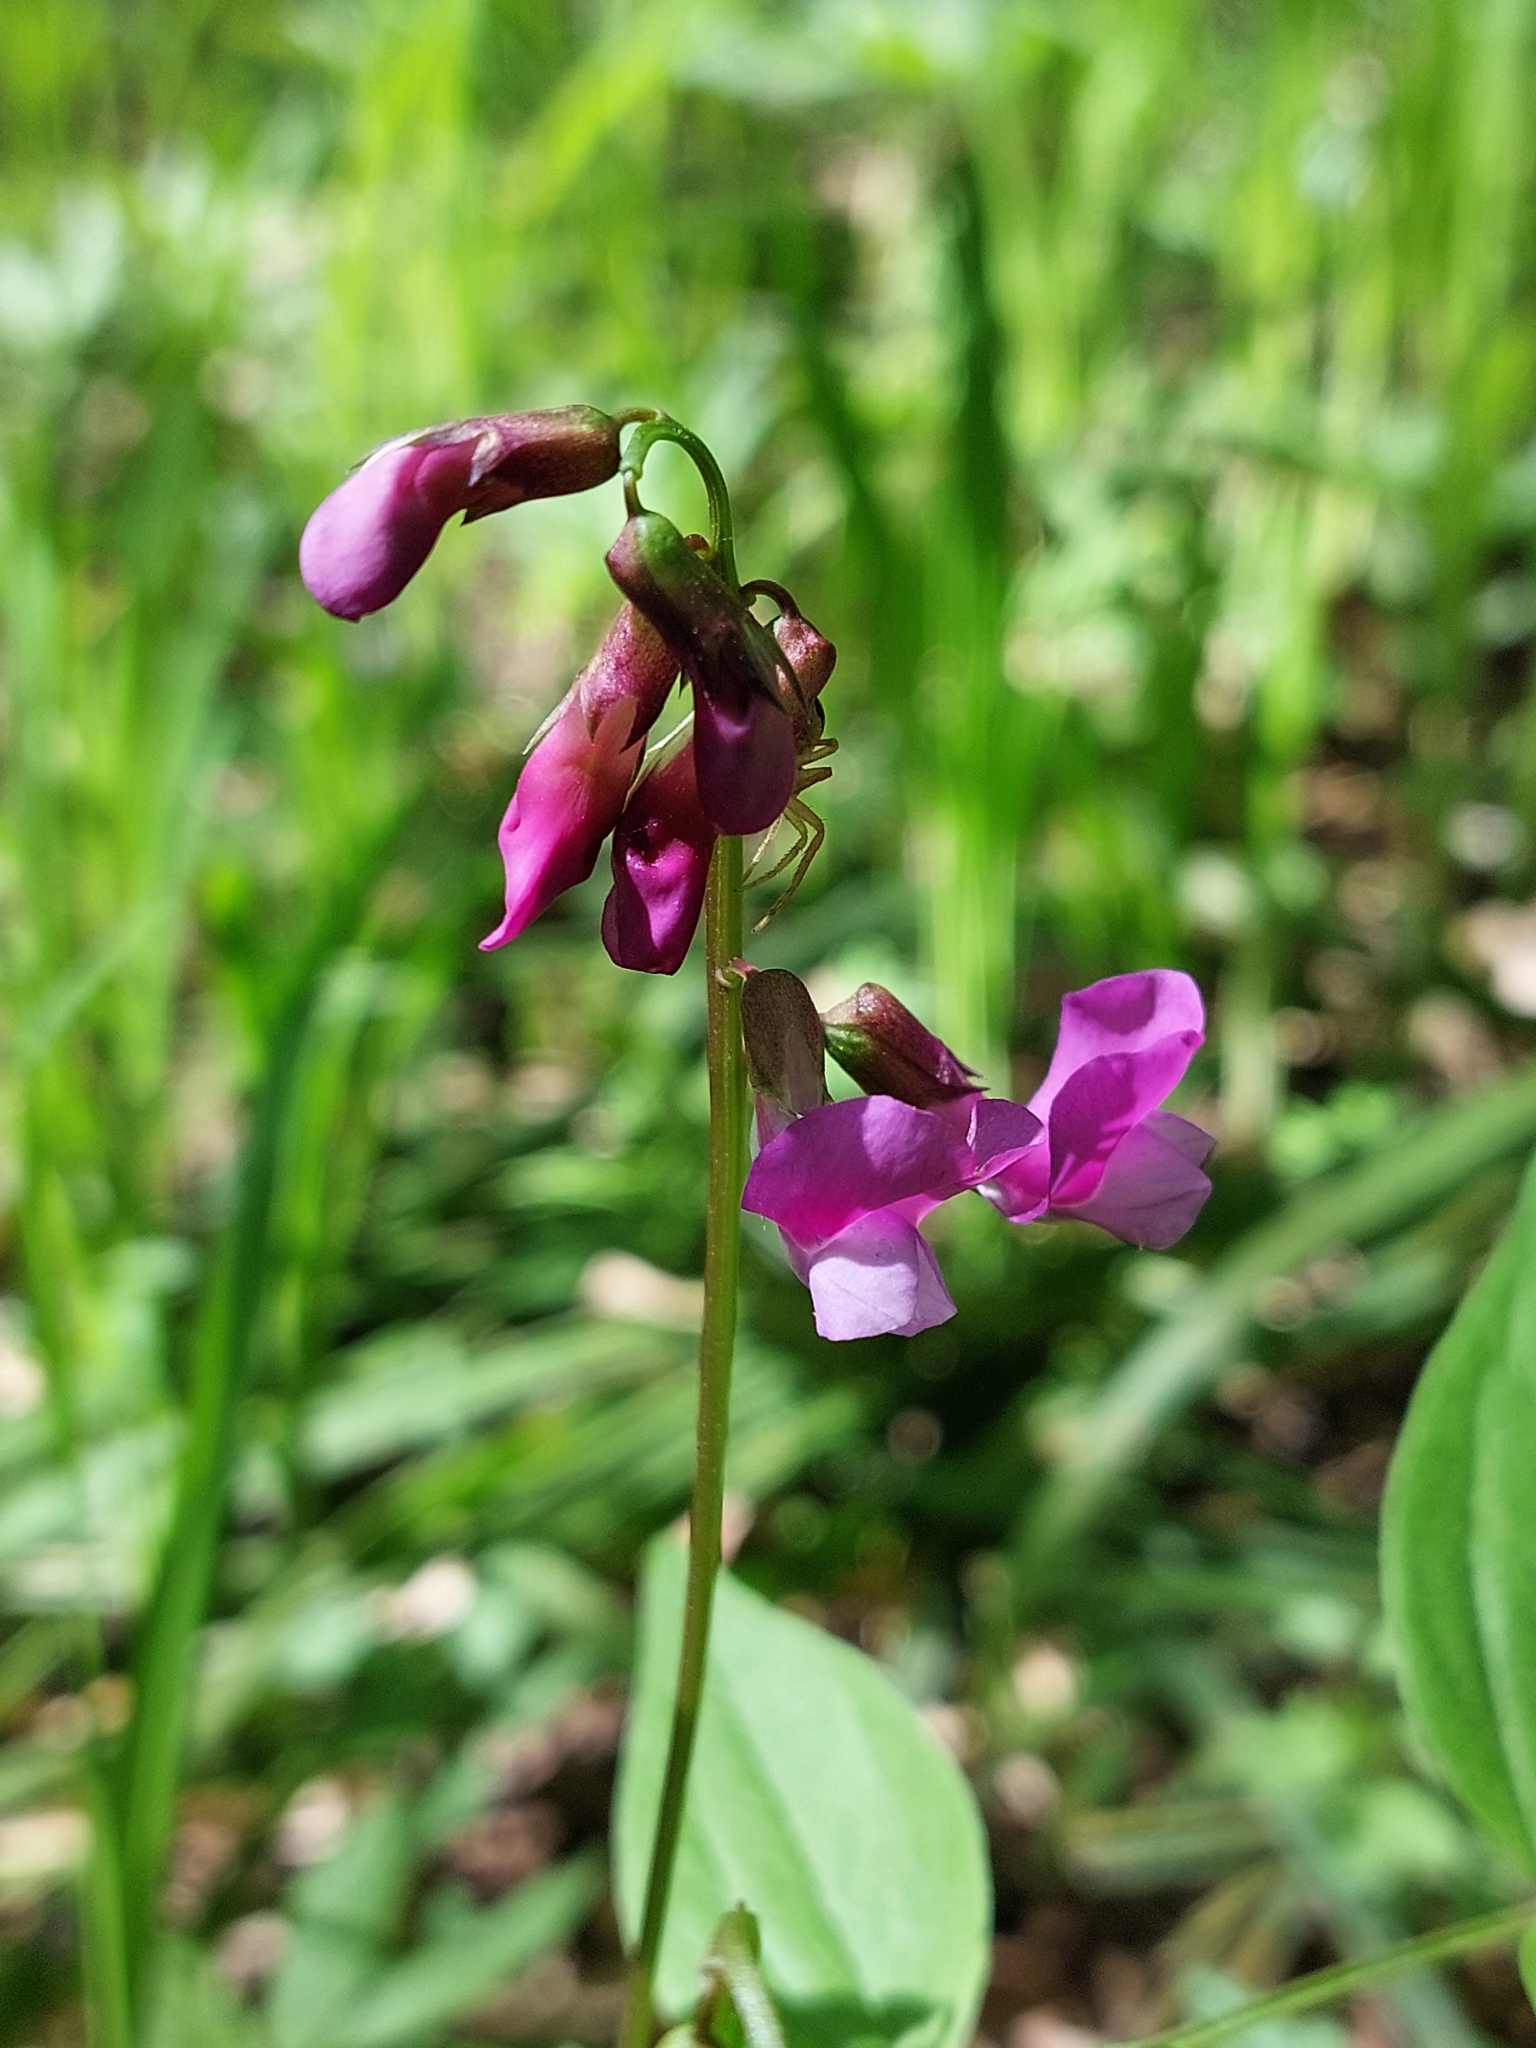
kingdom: Plantae
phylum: Tracheophyta
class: Magnoliopsida
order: Fabales
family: Fabaceae
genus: Lathyrus
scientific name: Lathyrus vernus
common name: Spring pea
